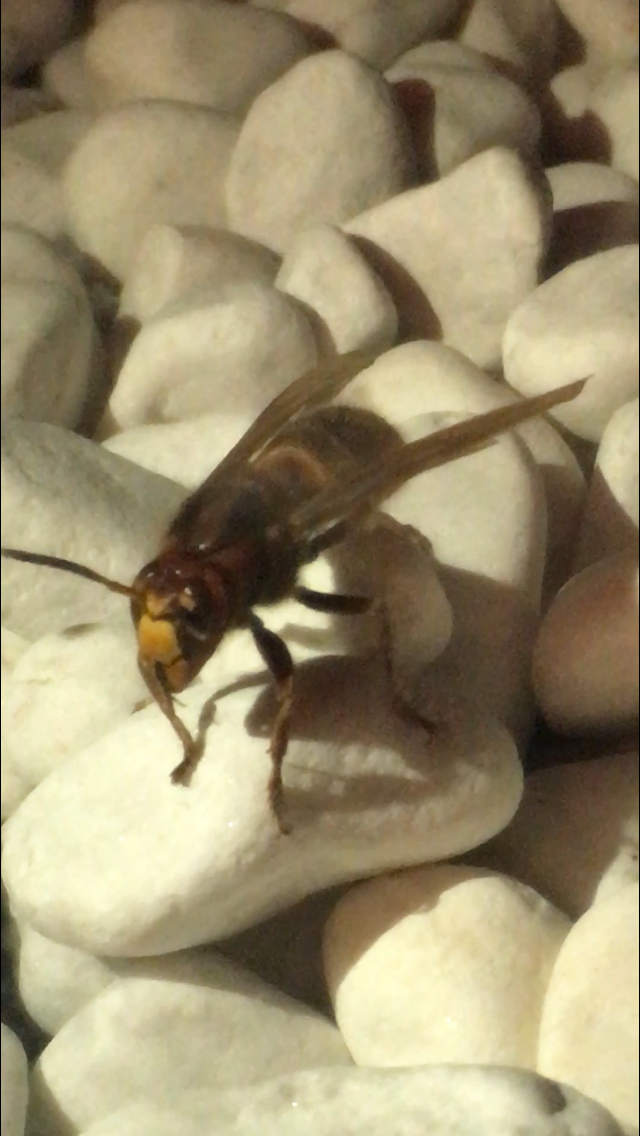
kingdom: Animalia
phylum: Arthropoda
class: Insecta
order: Hymenoptera
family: Vespidae
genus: Vespa
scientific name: Vespa crabro
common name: Hornet
